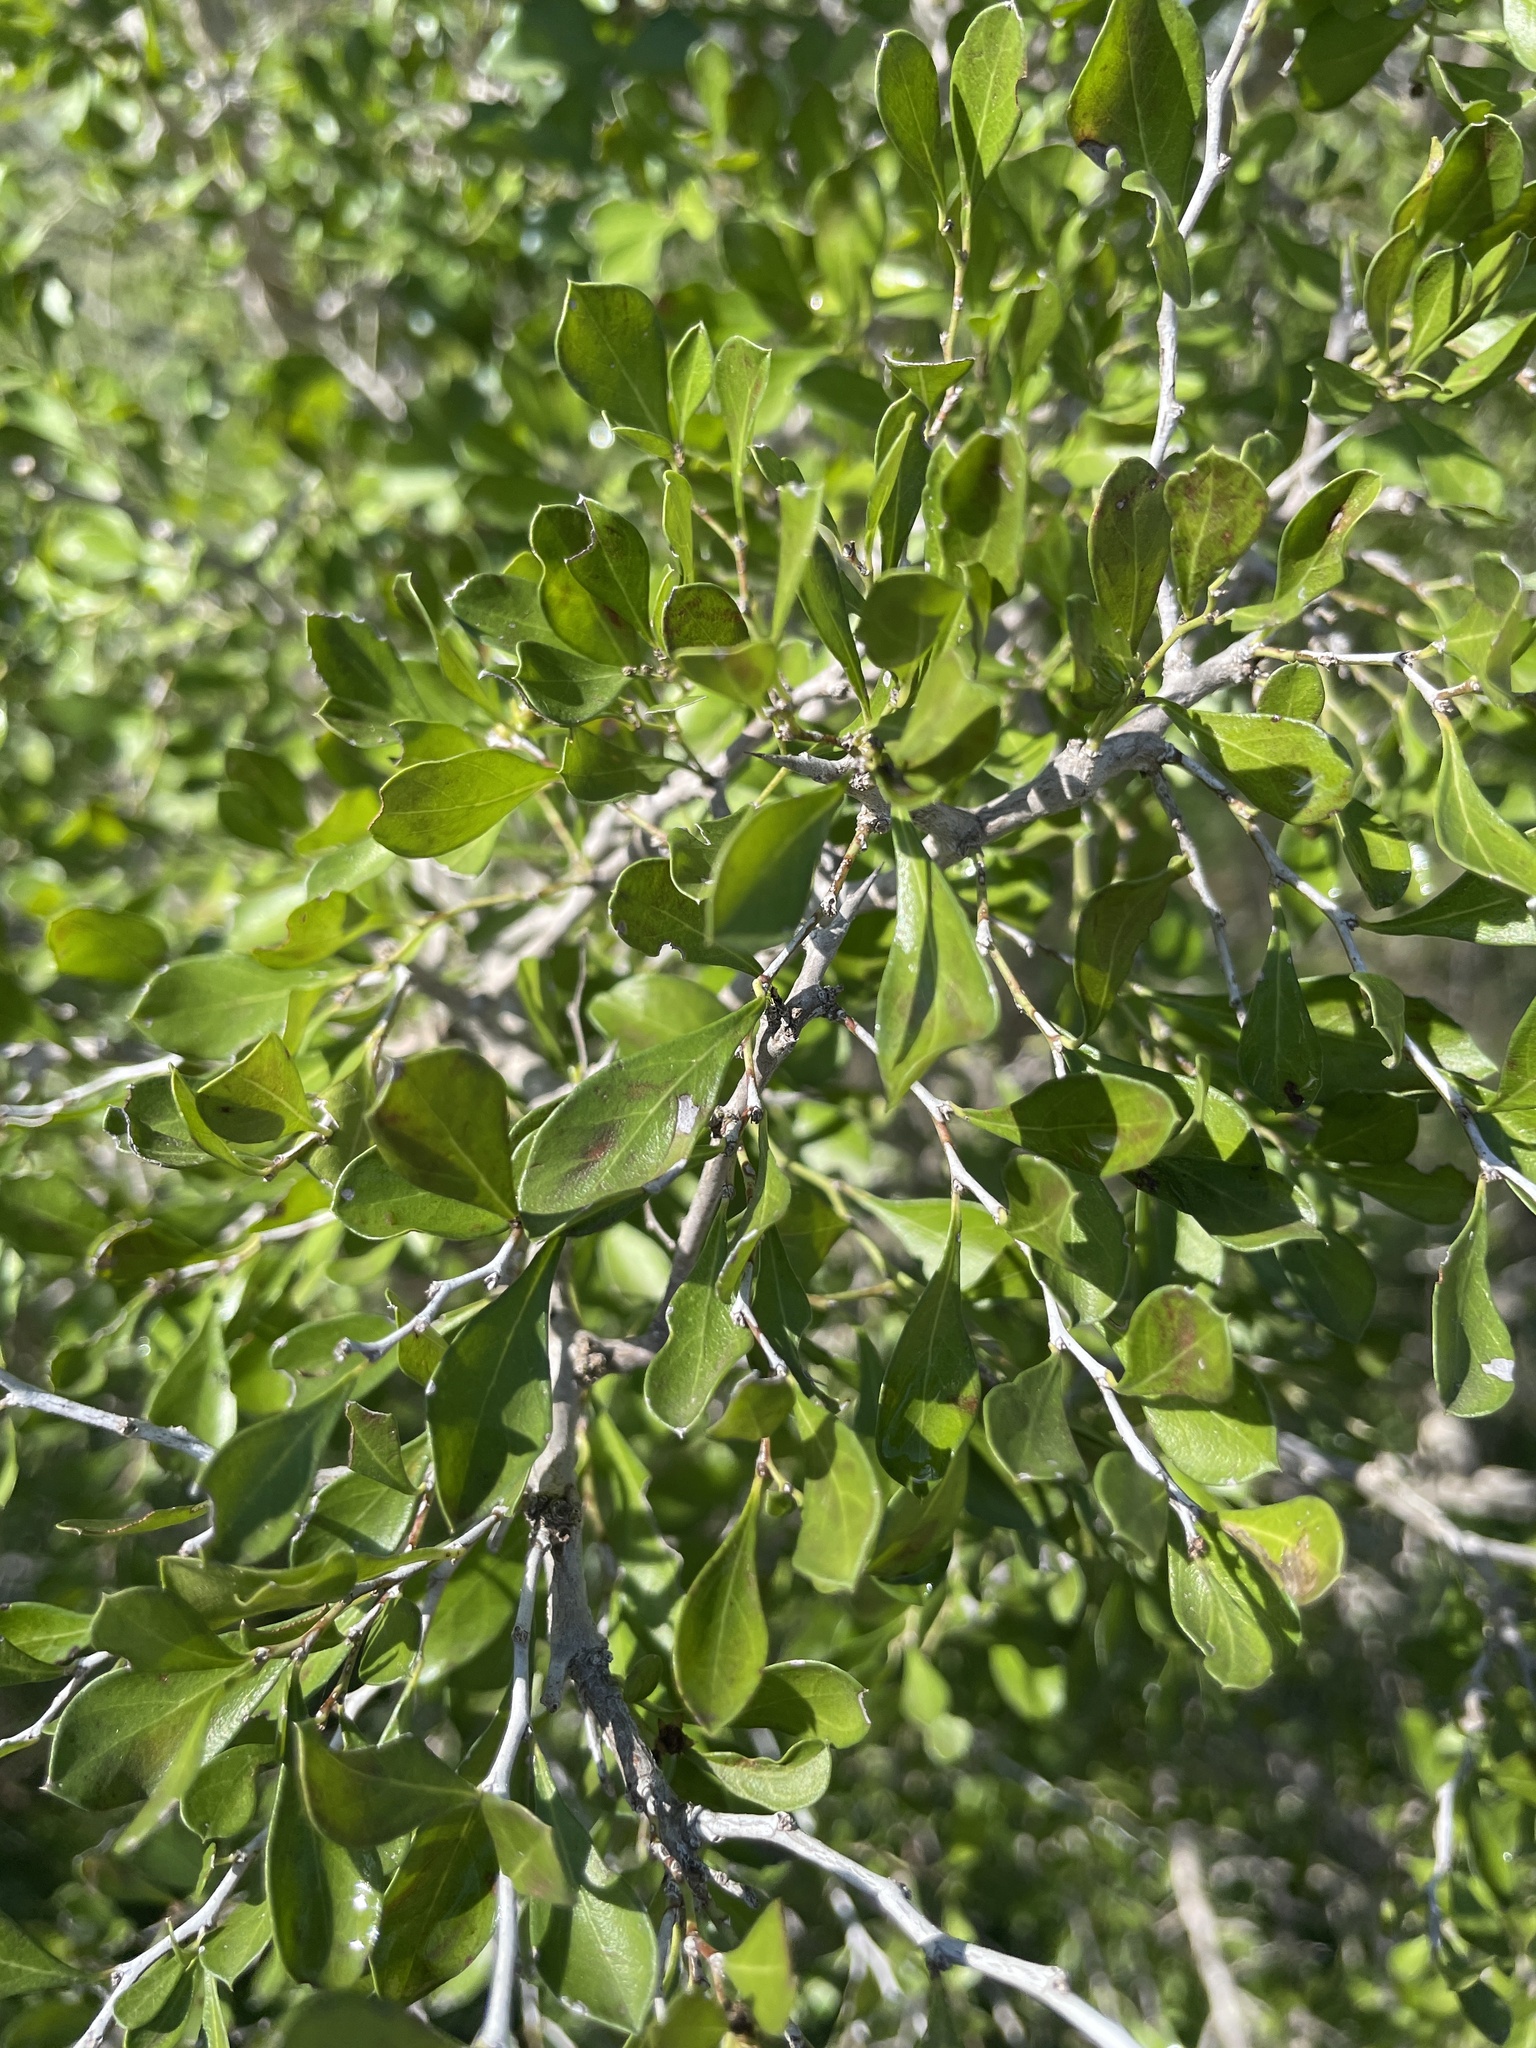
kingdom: Plantae
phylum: Tracheophyta
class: Magnoliopsida
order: Rosales
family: Rhamnaceae
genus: Condalia
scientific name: Condalia hookeri
